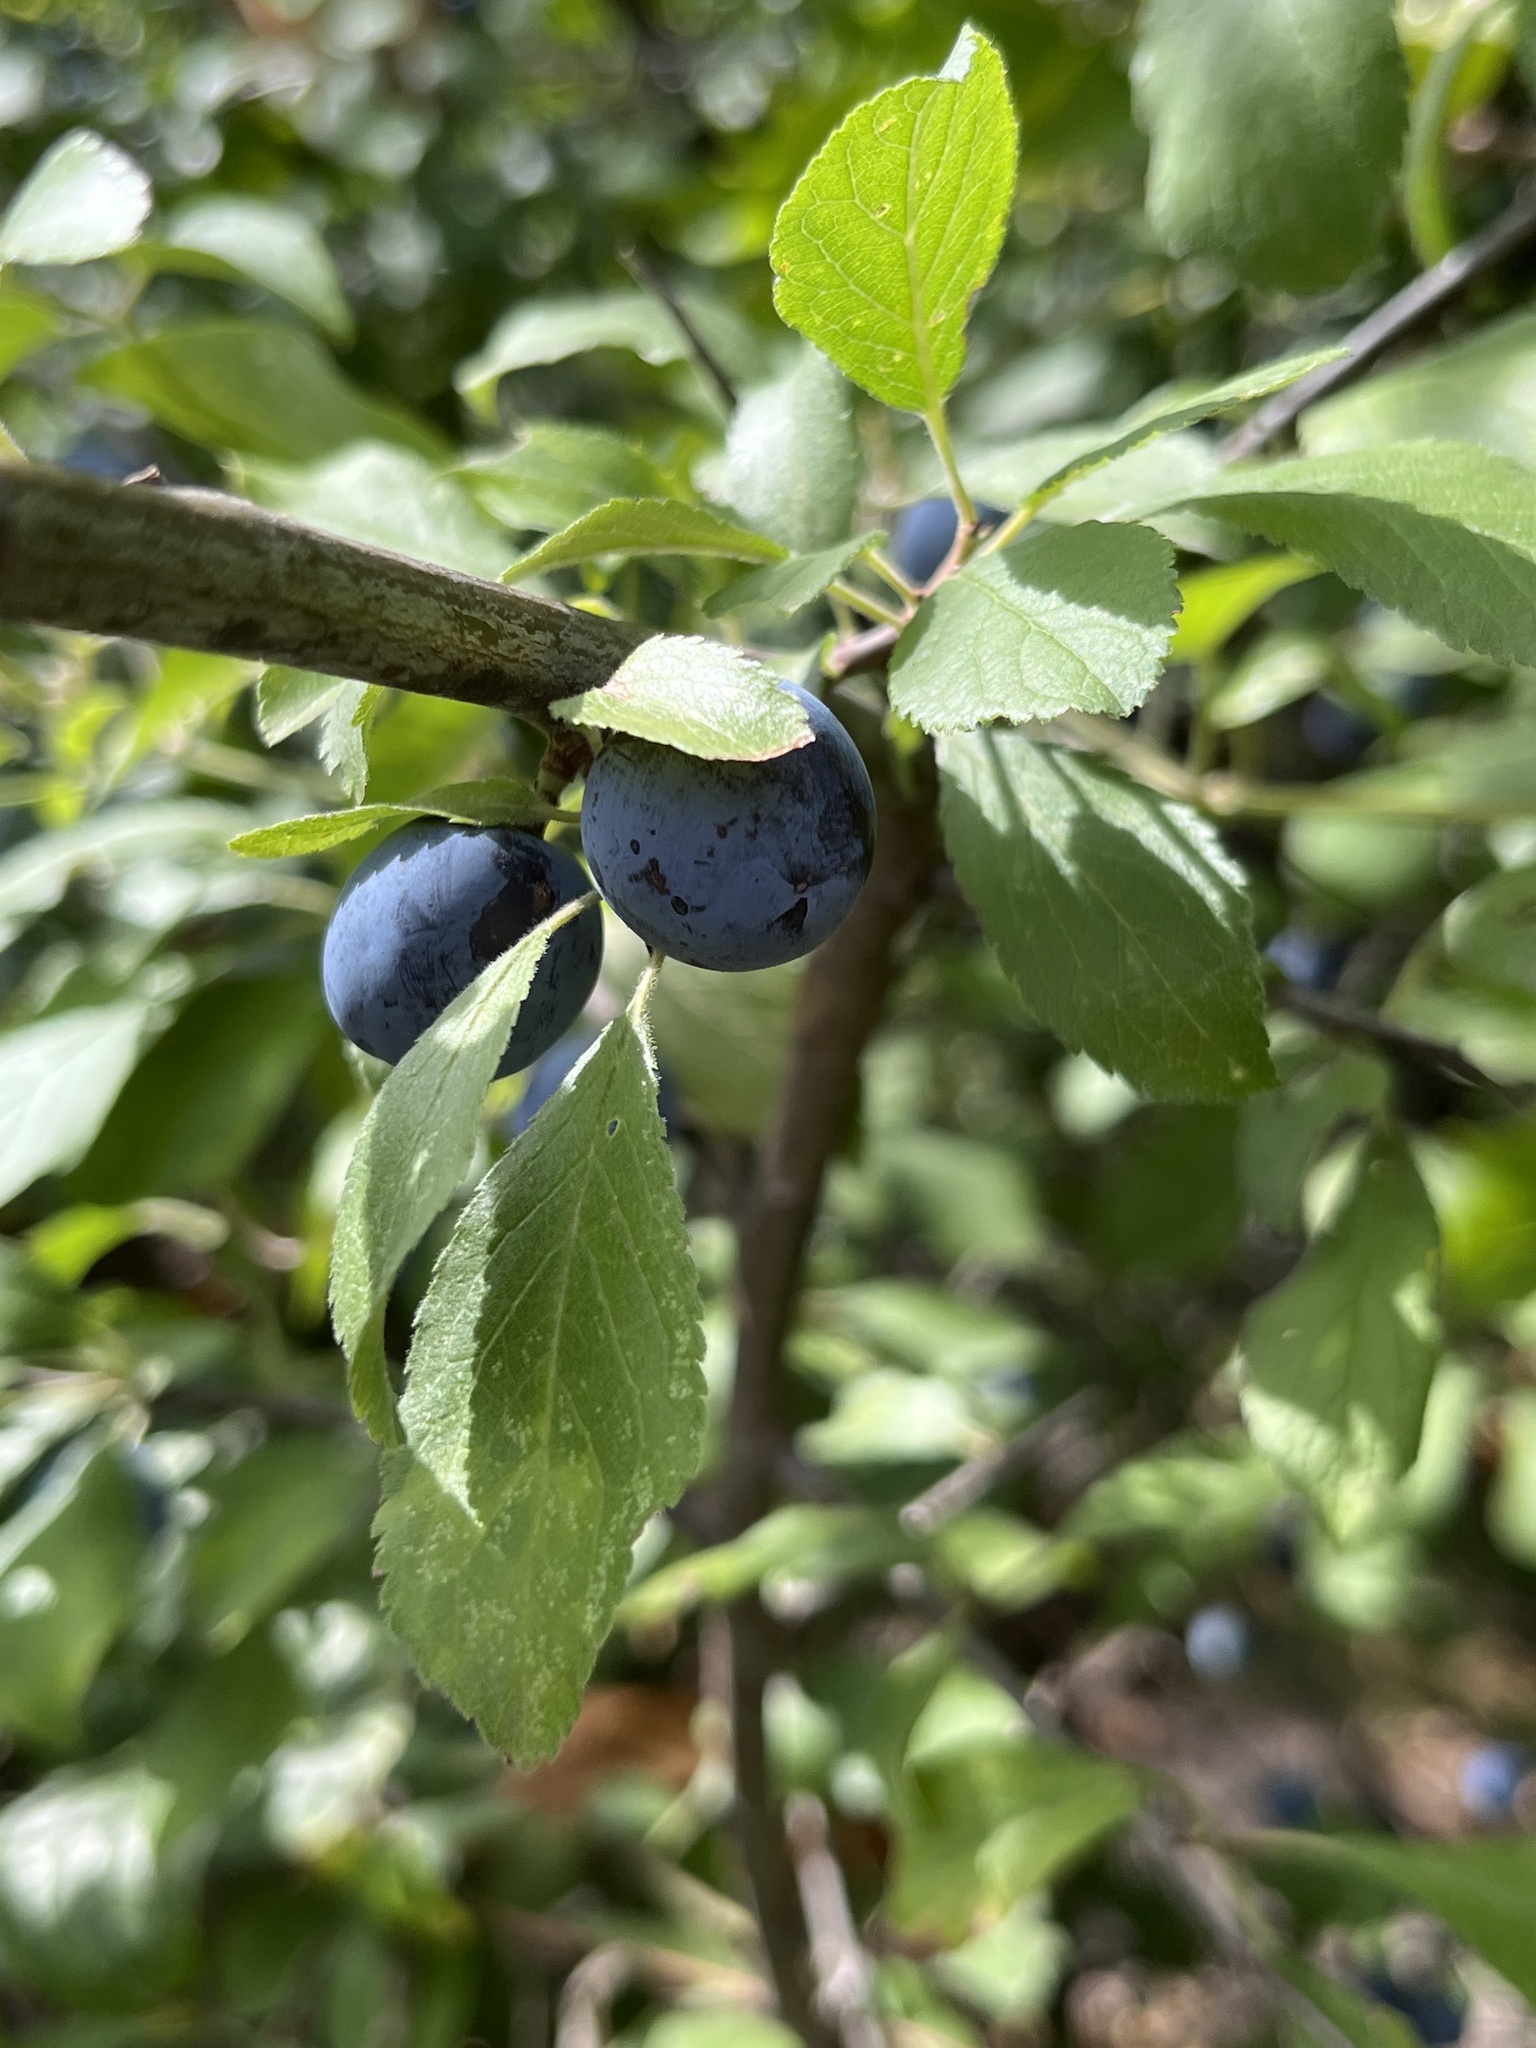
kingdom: Plantae
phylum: Tracheophyta
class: Magnoliopsida
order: Rosales
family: Rosaceae
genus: Prunus
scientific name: Prunus spinosa
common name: Blackthorn
